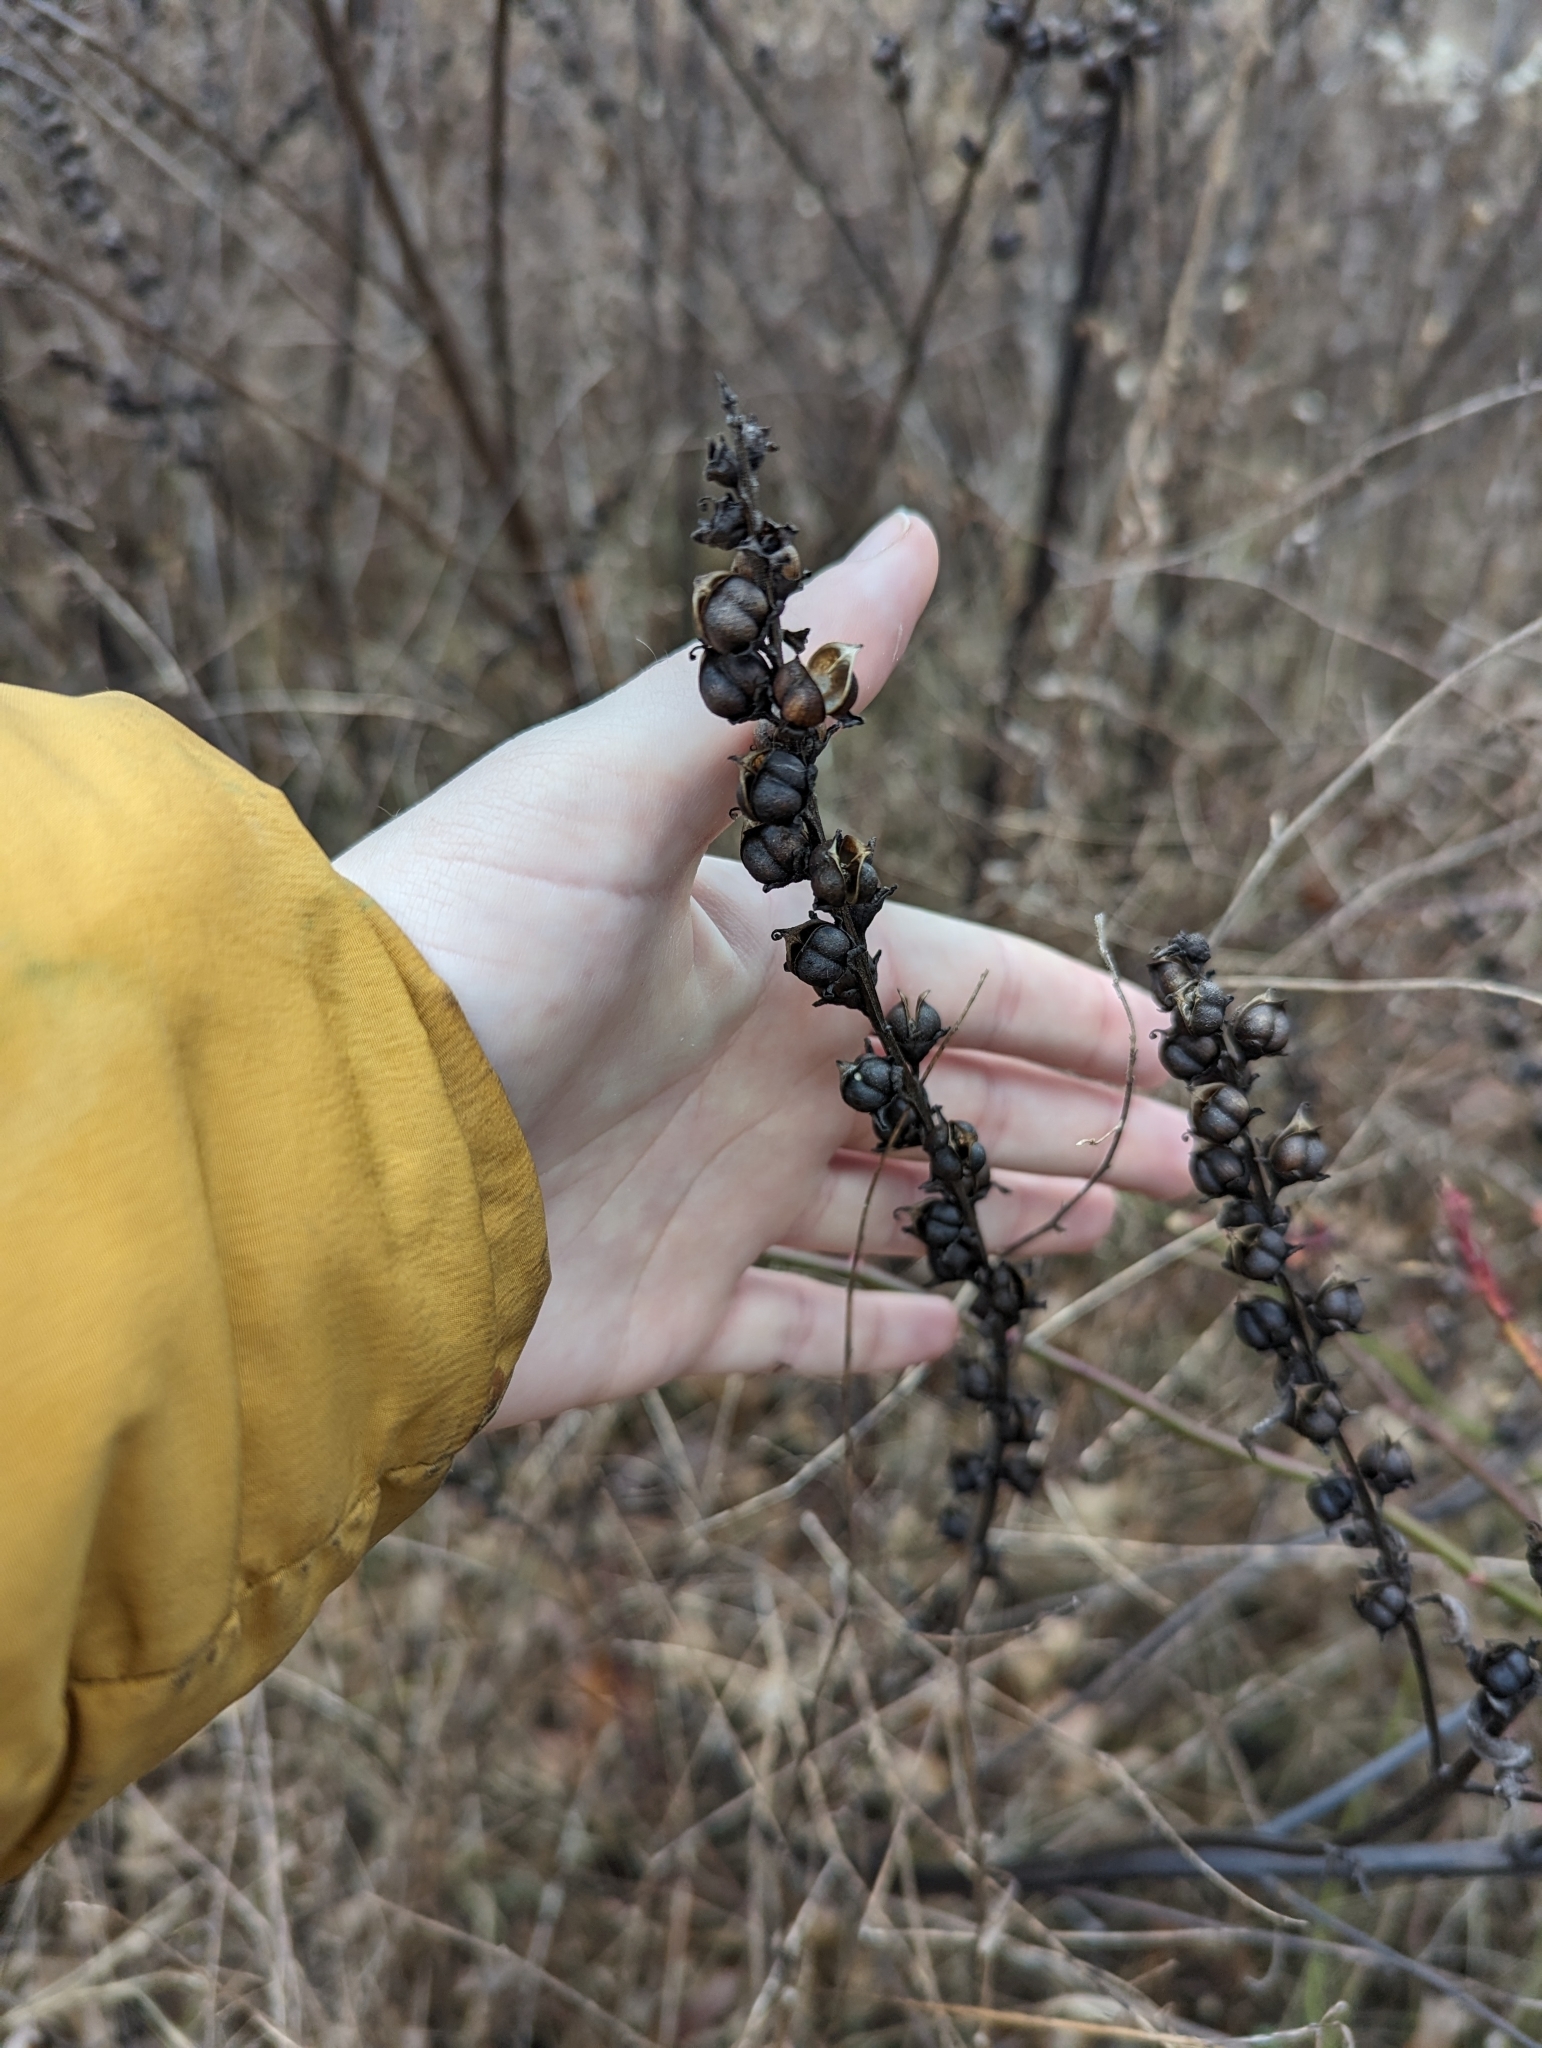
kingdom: Plantae
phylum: Tracheophyta
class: Magnoliopsida
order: Lamiales
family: Orobanchaceae
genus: Dasistoma
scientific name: Dasistoma macrophyllum
